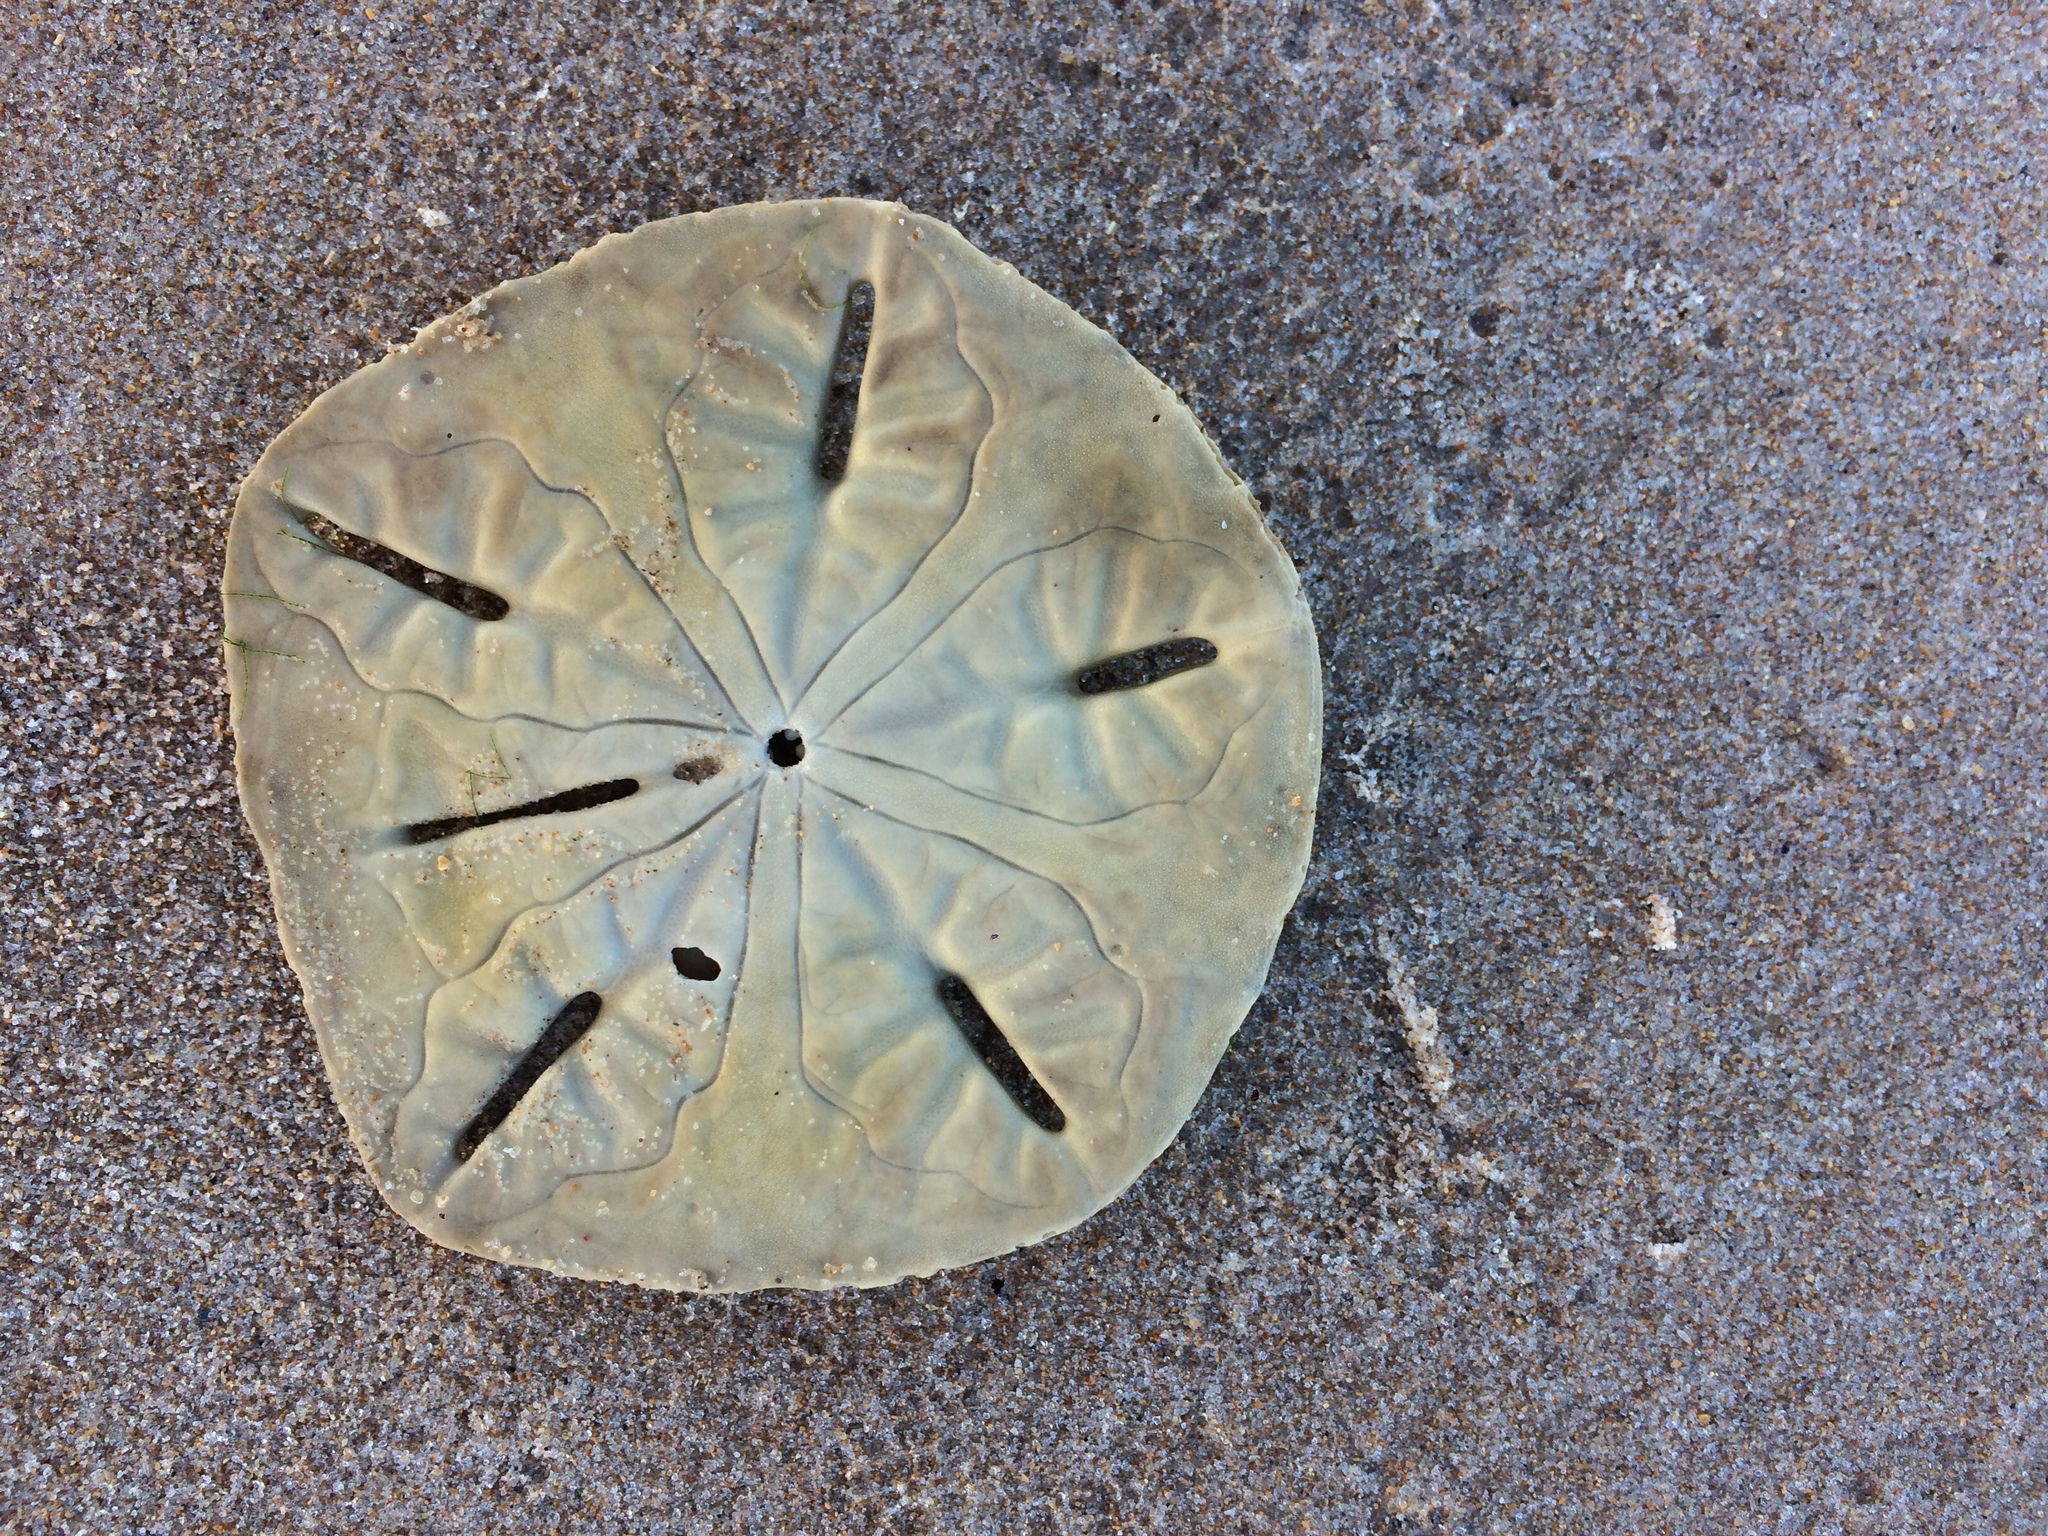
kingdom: Animalia
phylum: Echinodermata
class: Echinoidea
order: Echinolampadacea
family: Mellitidae
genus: Leodia
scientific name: Leodia sexiesperforata
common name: Sand dollar
